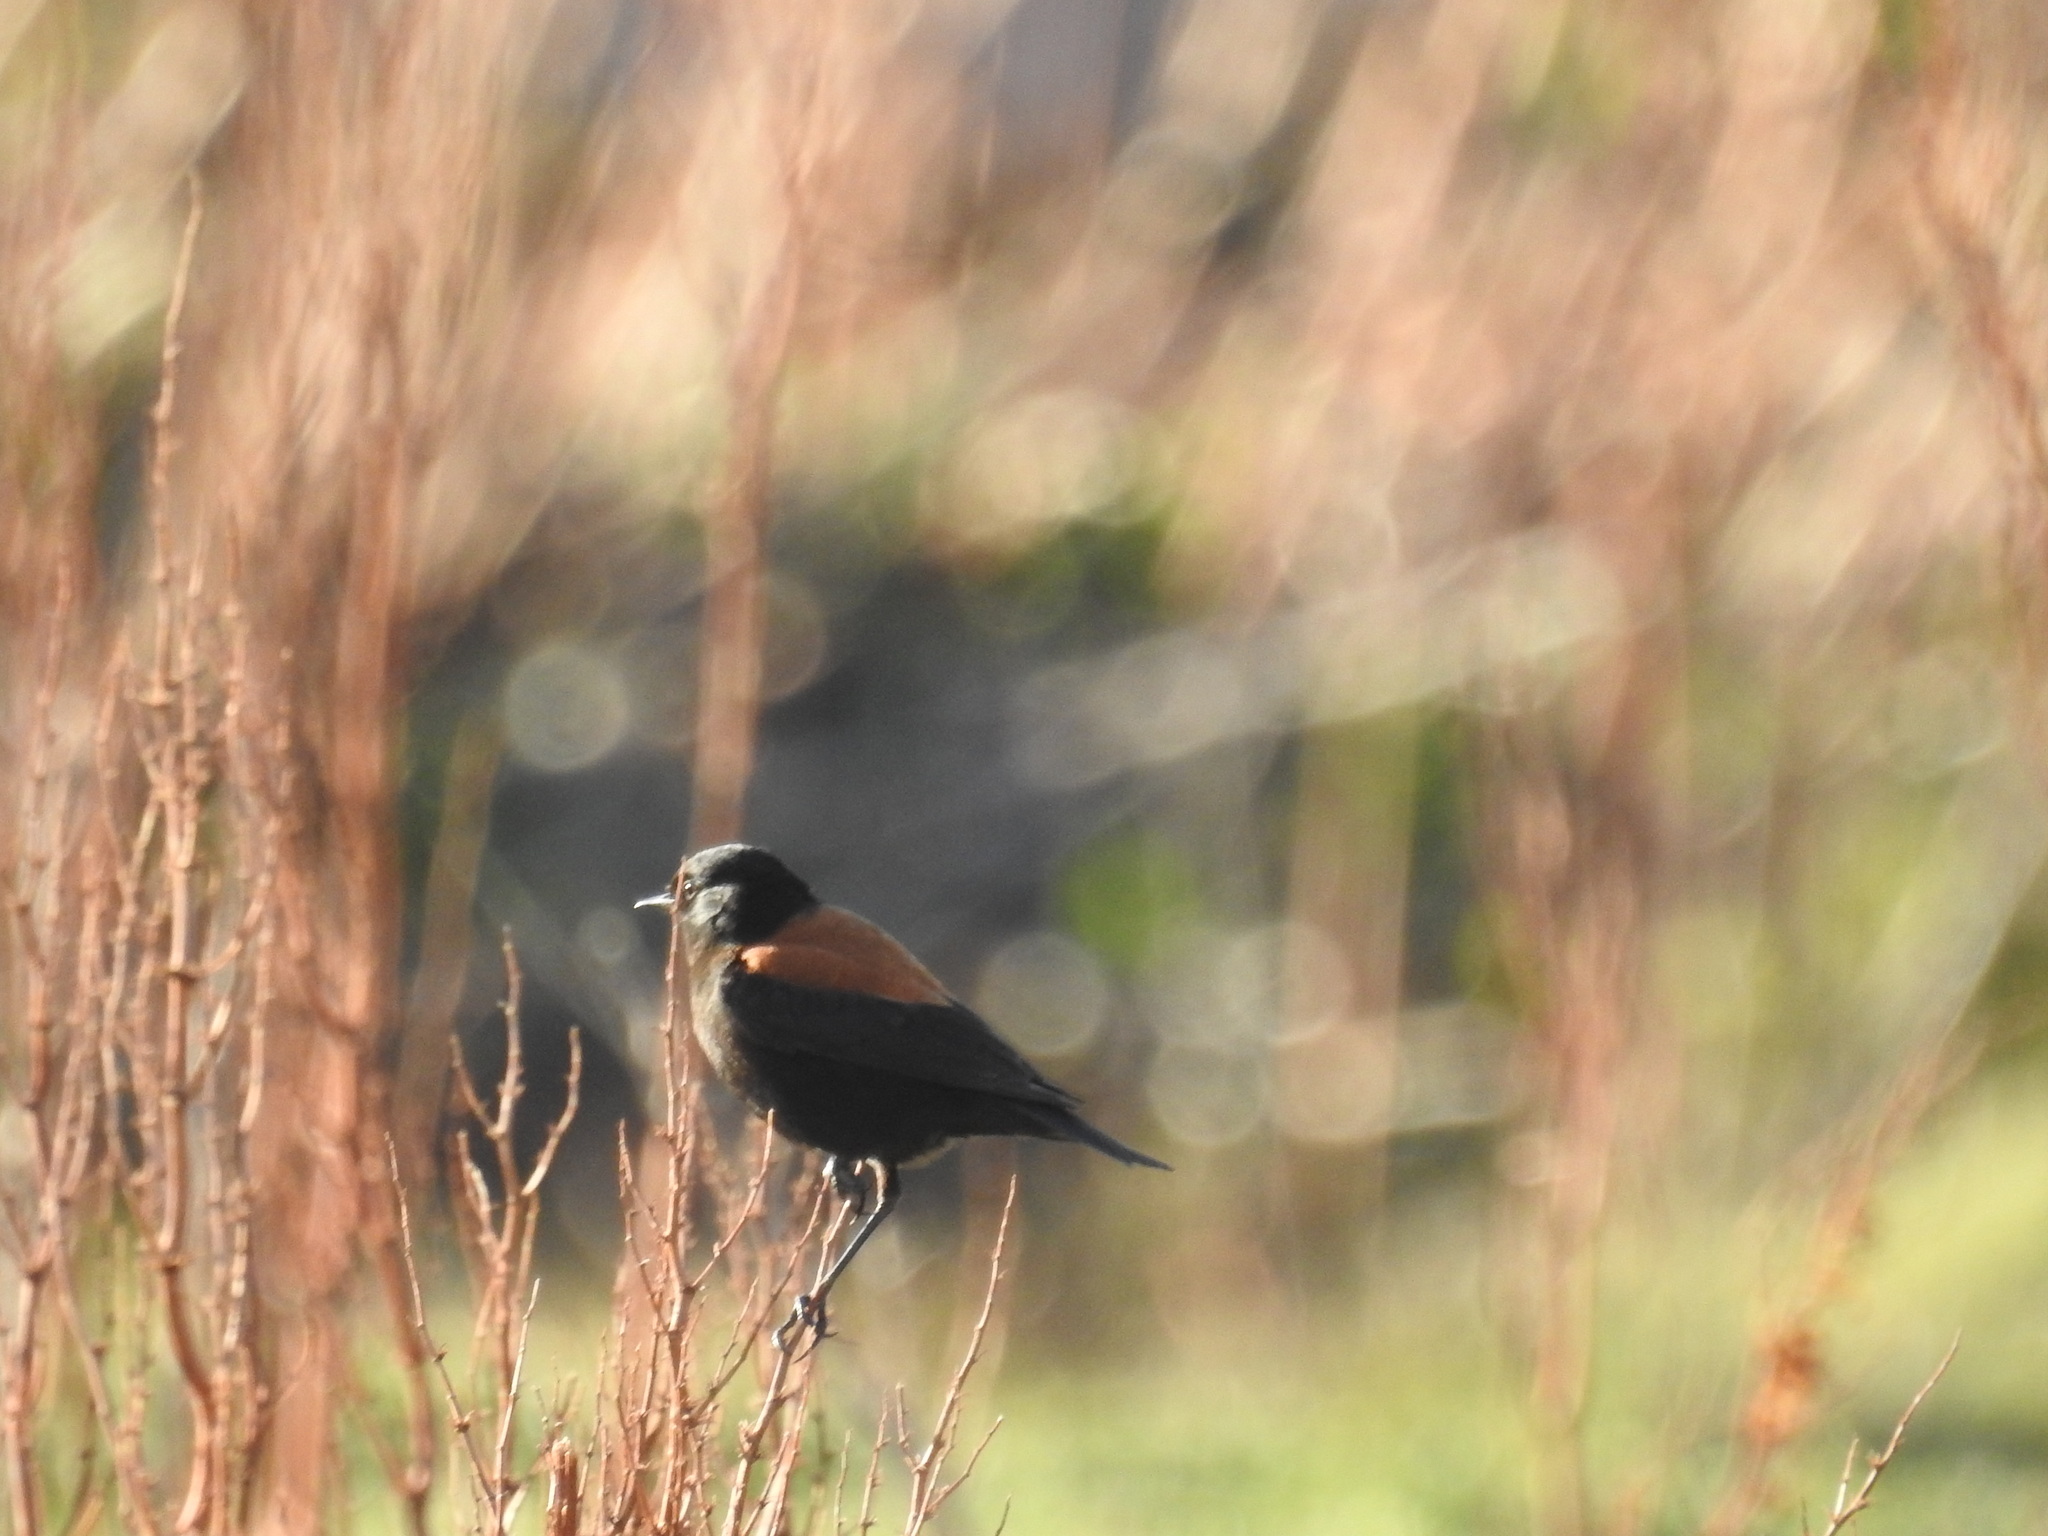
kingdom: Animalia
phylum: Chordata
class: Aves
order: Passeriformes
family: Tyrannidae
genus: Lessonia
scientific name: Lessonia rufa
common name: Austral negrito
